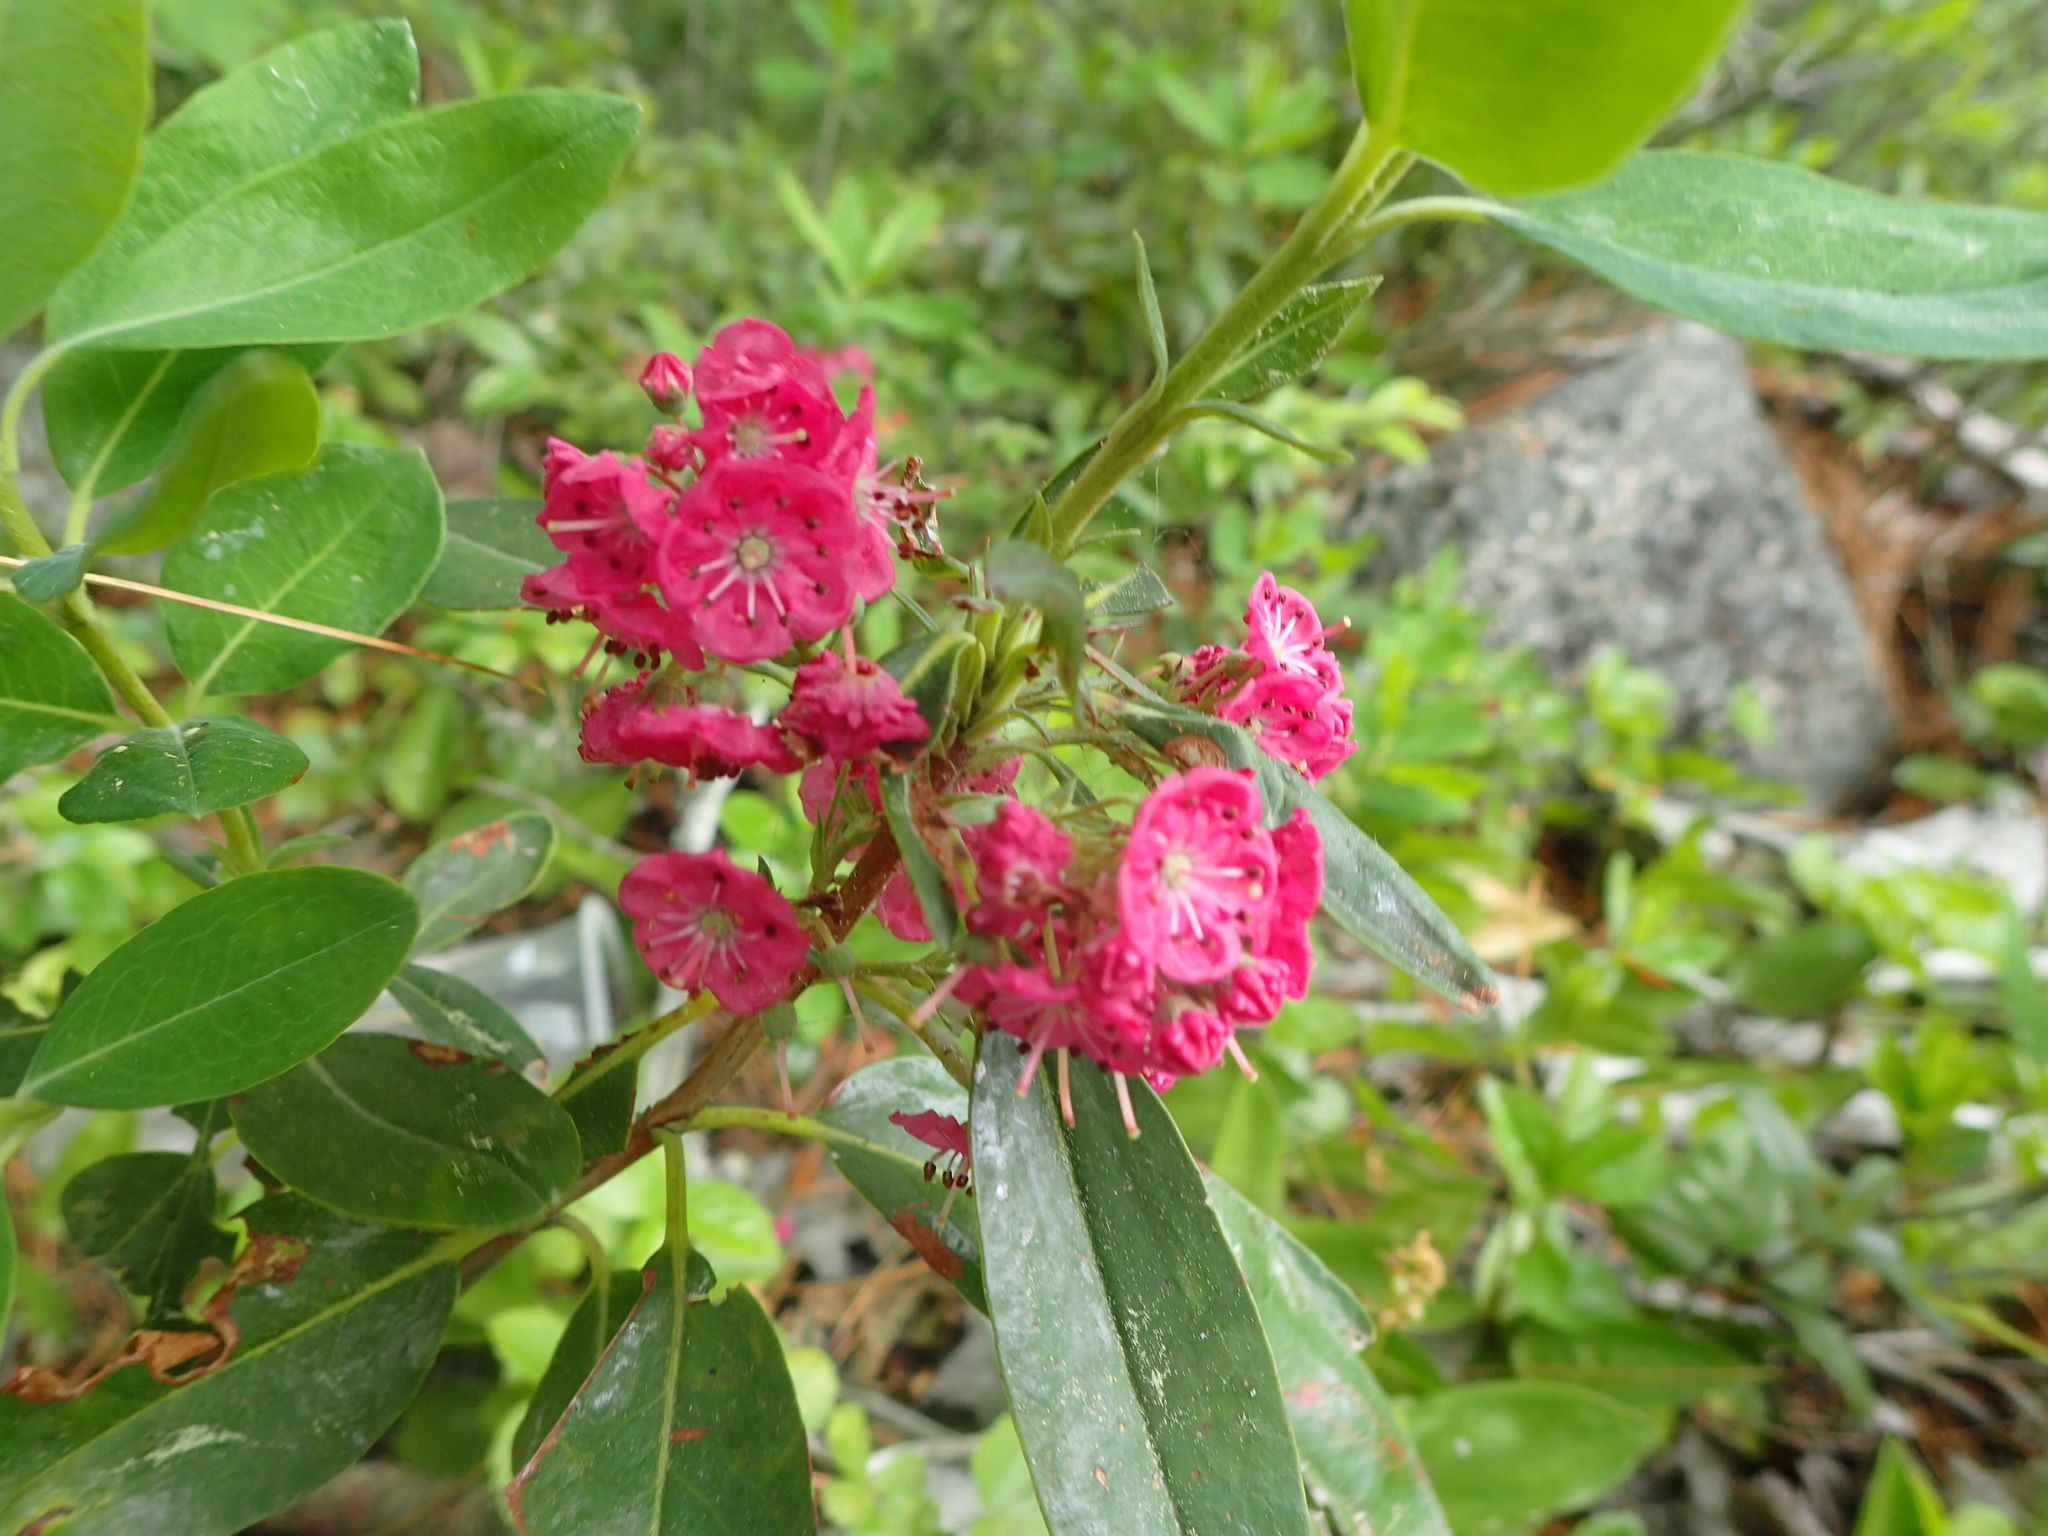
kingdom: Plantae
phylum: Tracheophyta
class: Magnoliopsida
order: Ericales
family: Ericaceae
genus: Kalmia
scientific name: Kalmia angustifolia
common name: Sheep-laurel
